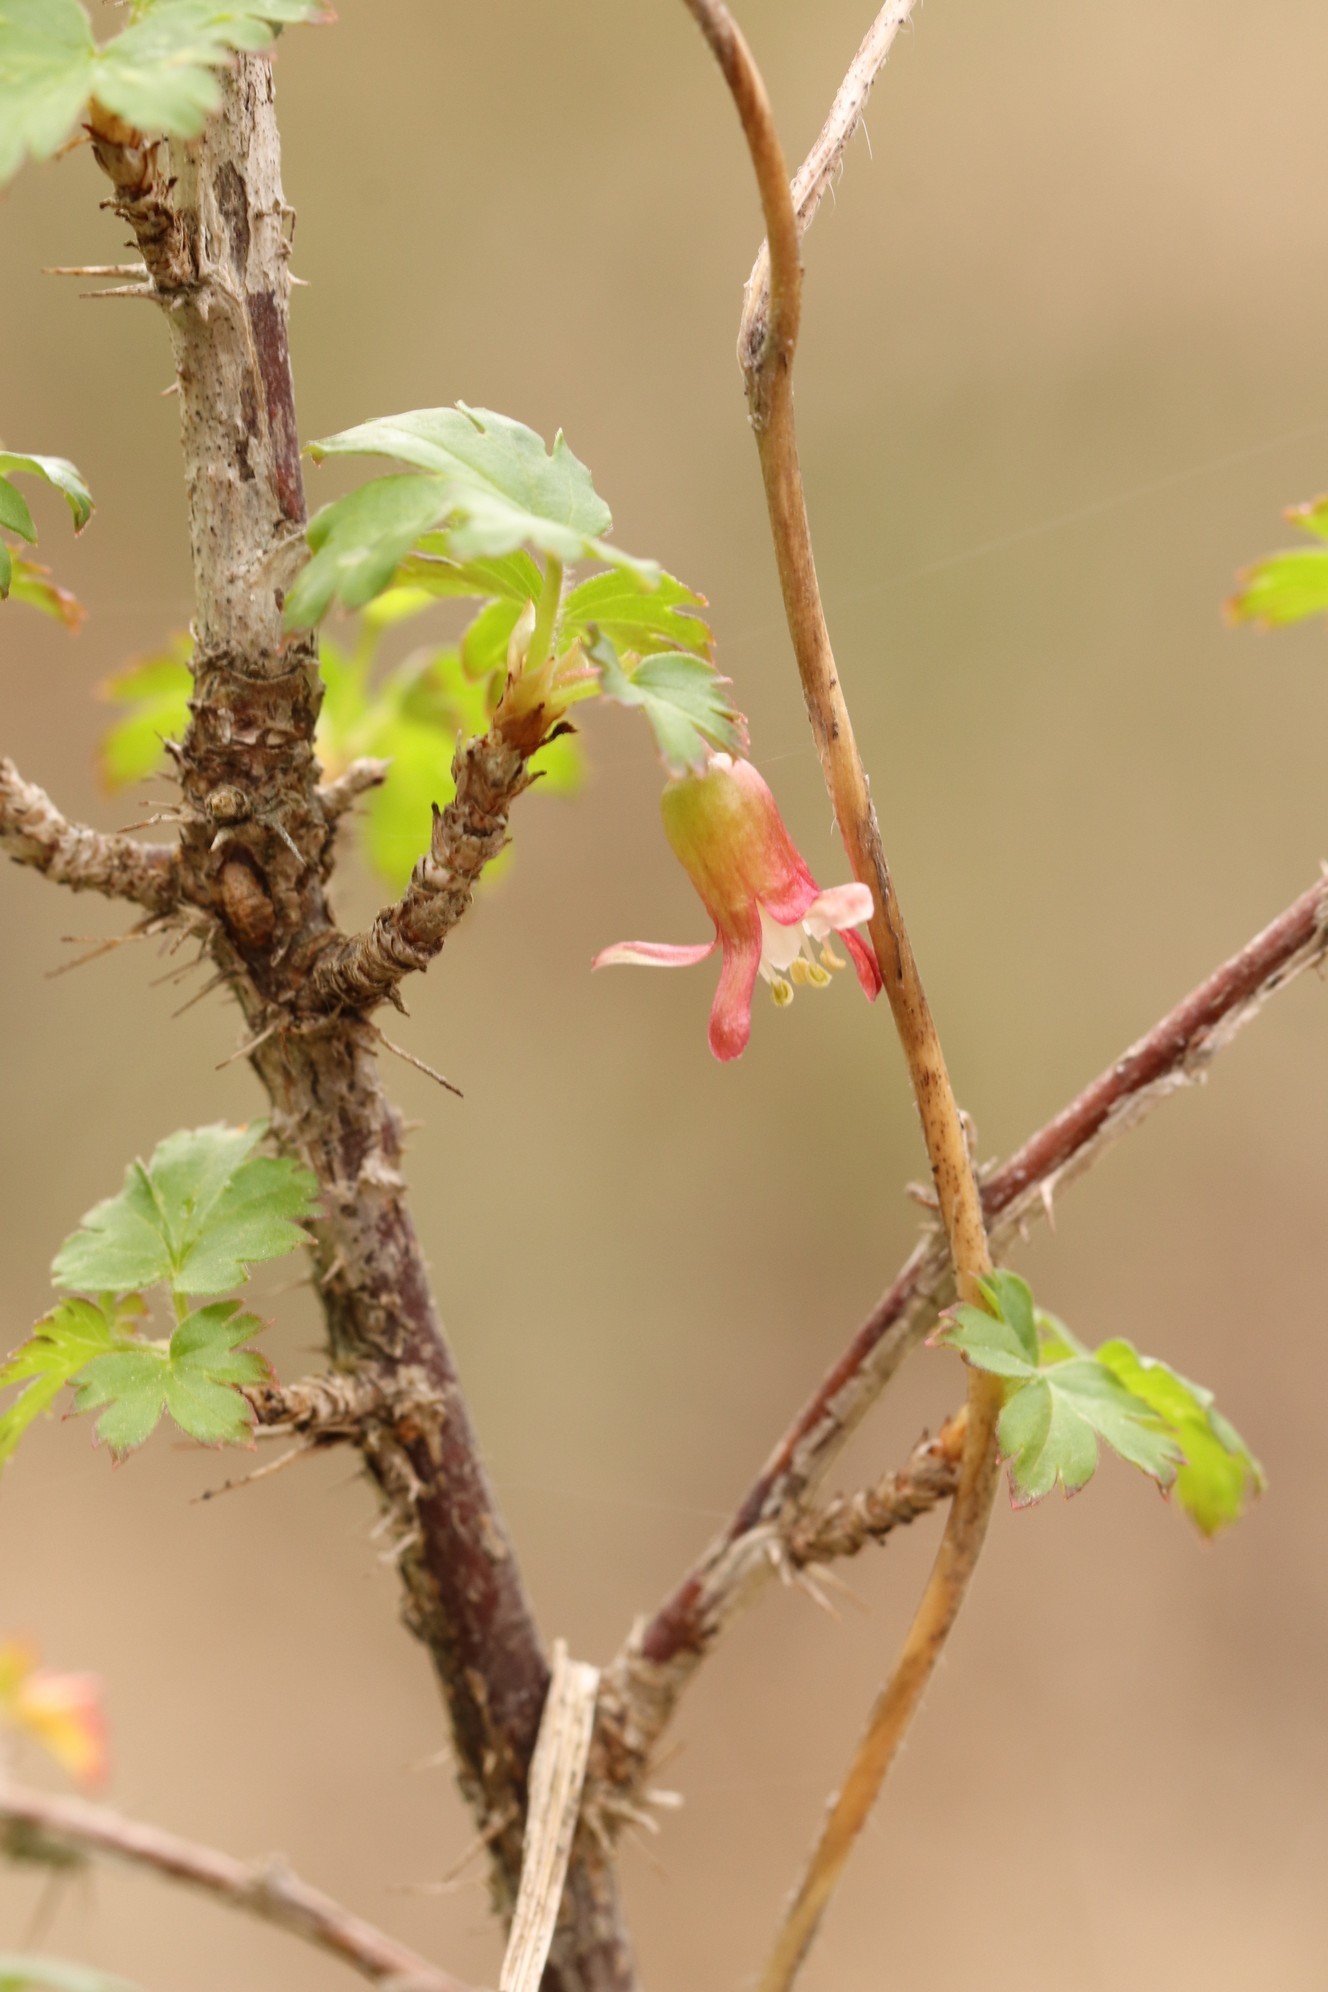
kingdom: Plantae
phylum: Tracheophyta
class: Magnoliopsida
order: Saxifragales
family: Grossulariaceae
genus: Ribes
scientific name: Ribes aciculare
